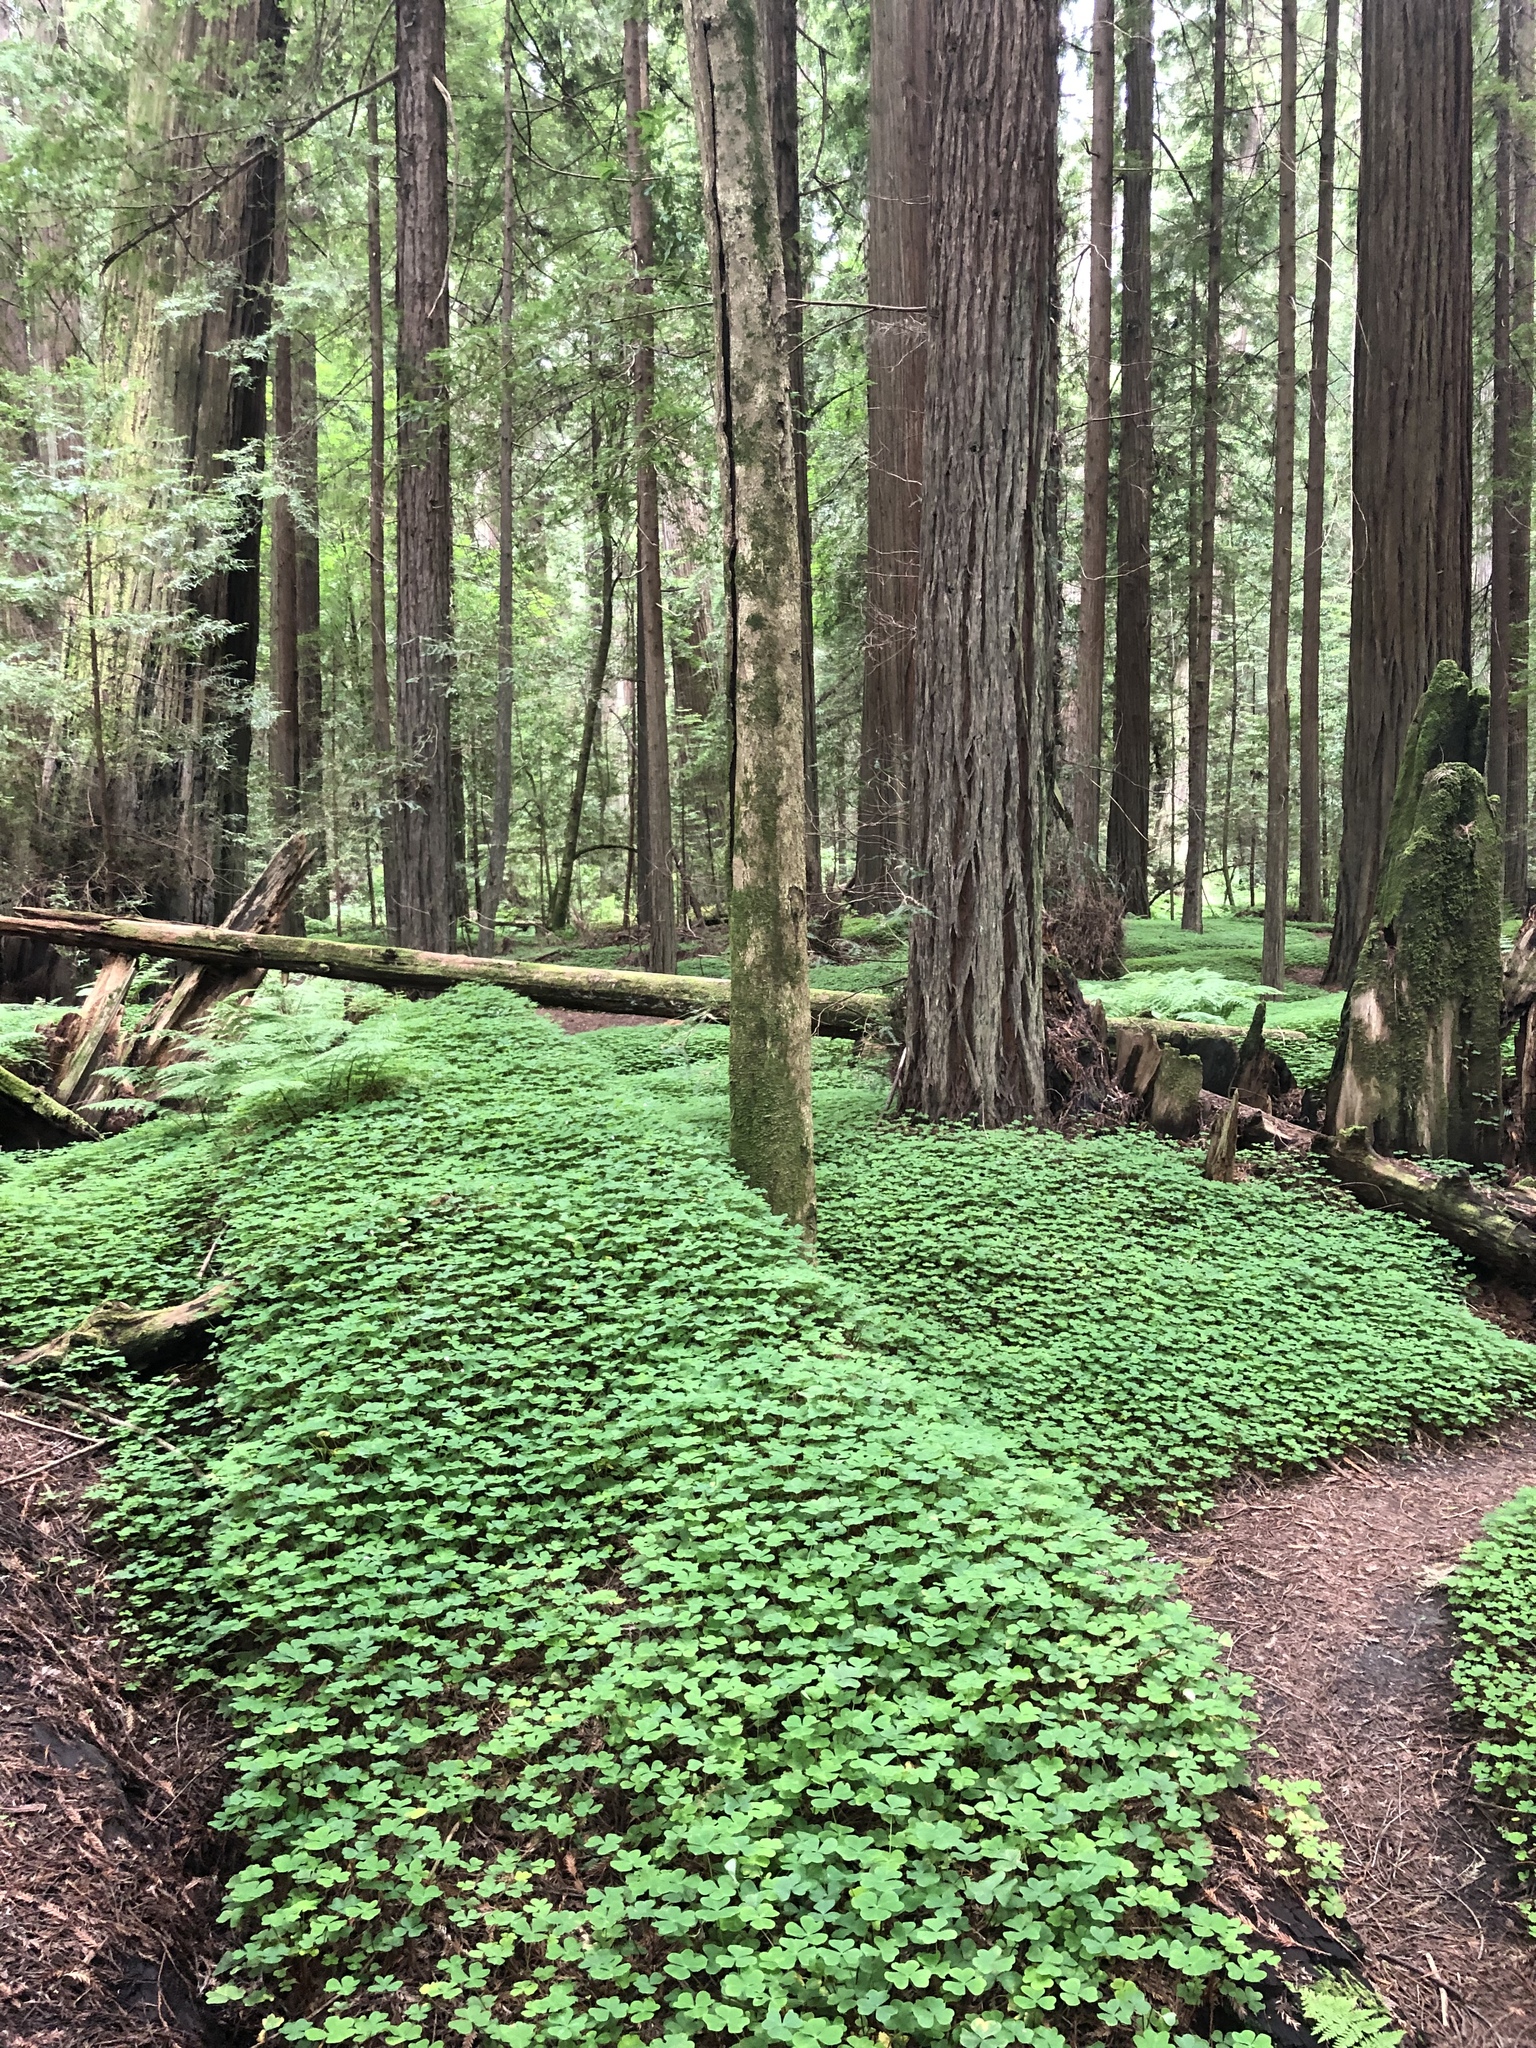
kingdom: Plantae
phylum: Tracheophyta
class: Magnoliopsida
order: Oxalidales
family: Oxalidaceae
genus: Oxalis
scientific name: Oxalis oregana
